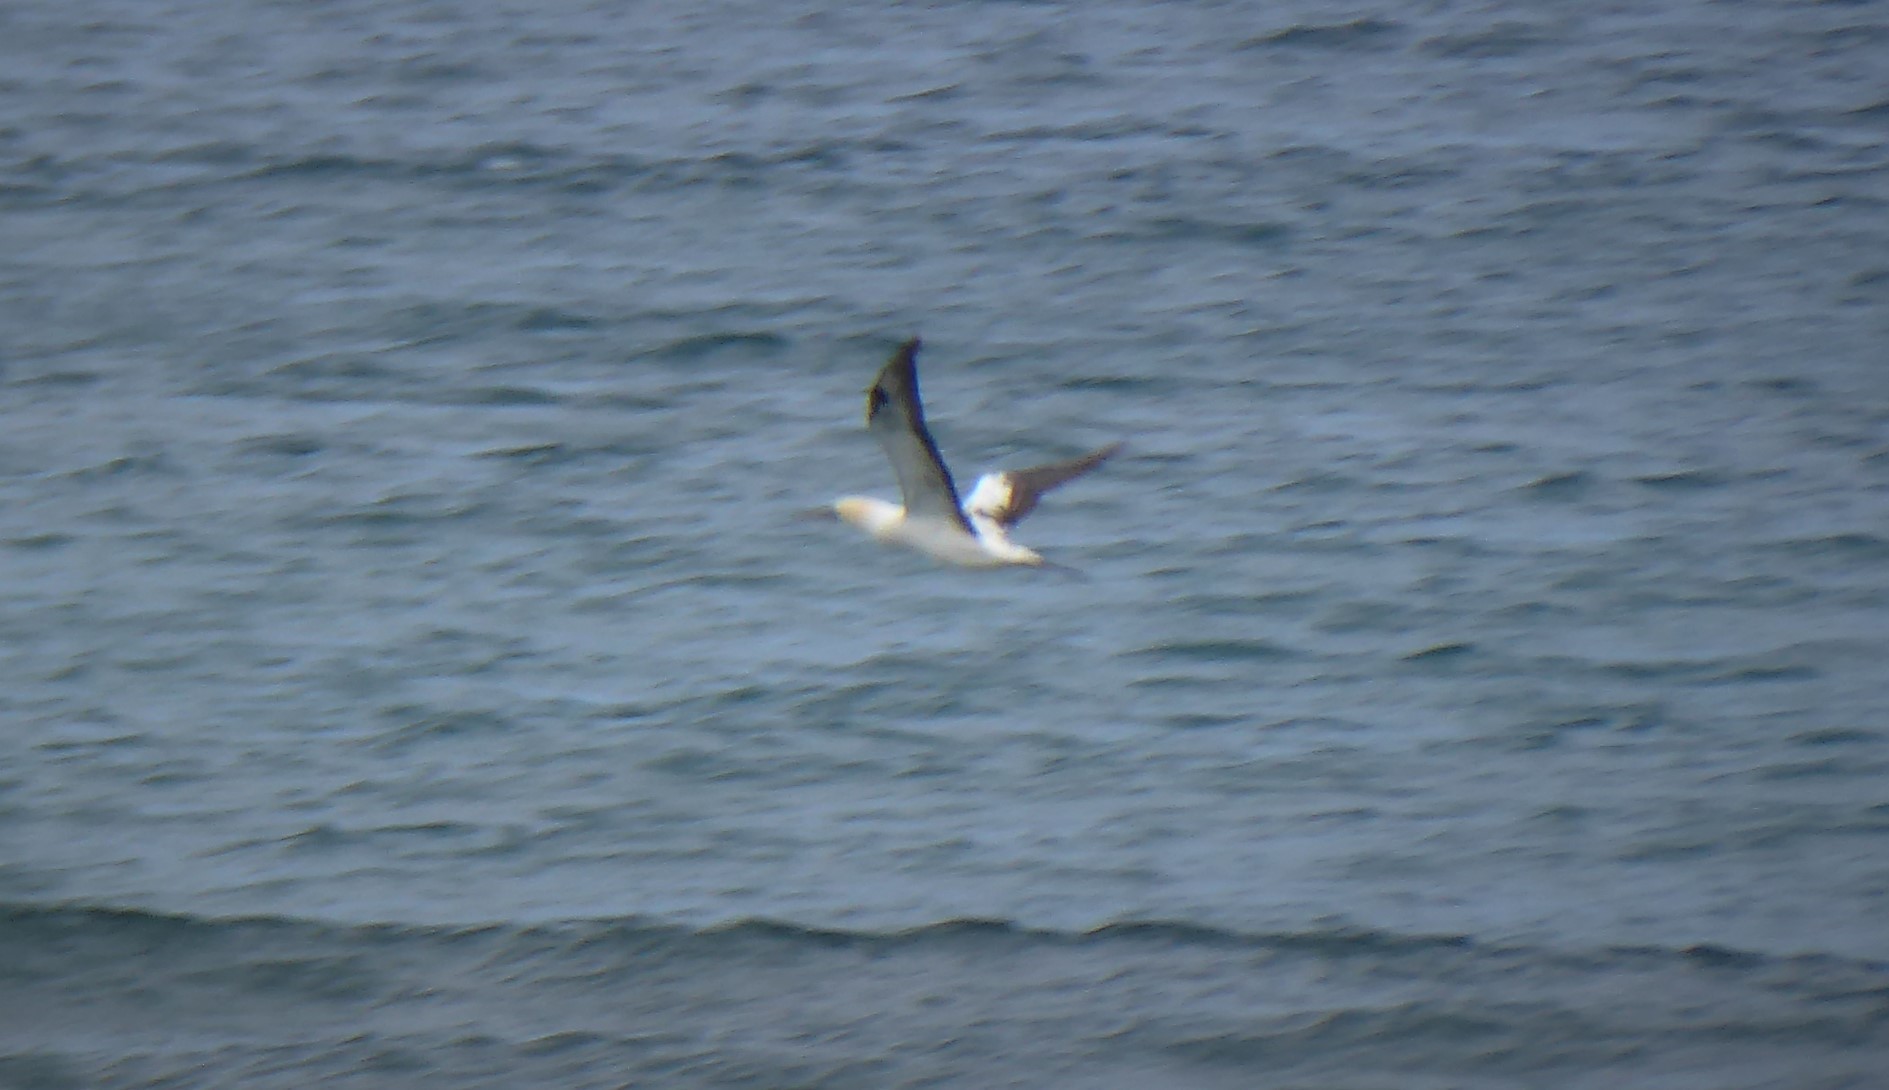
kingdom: Animalia
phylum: Chordata
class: Aves
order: Suliformes
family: Sulidae
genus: Morus
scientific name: Morus serrator
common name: Australasian gannet
